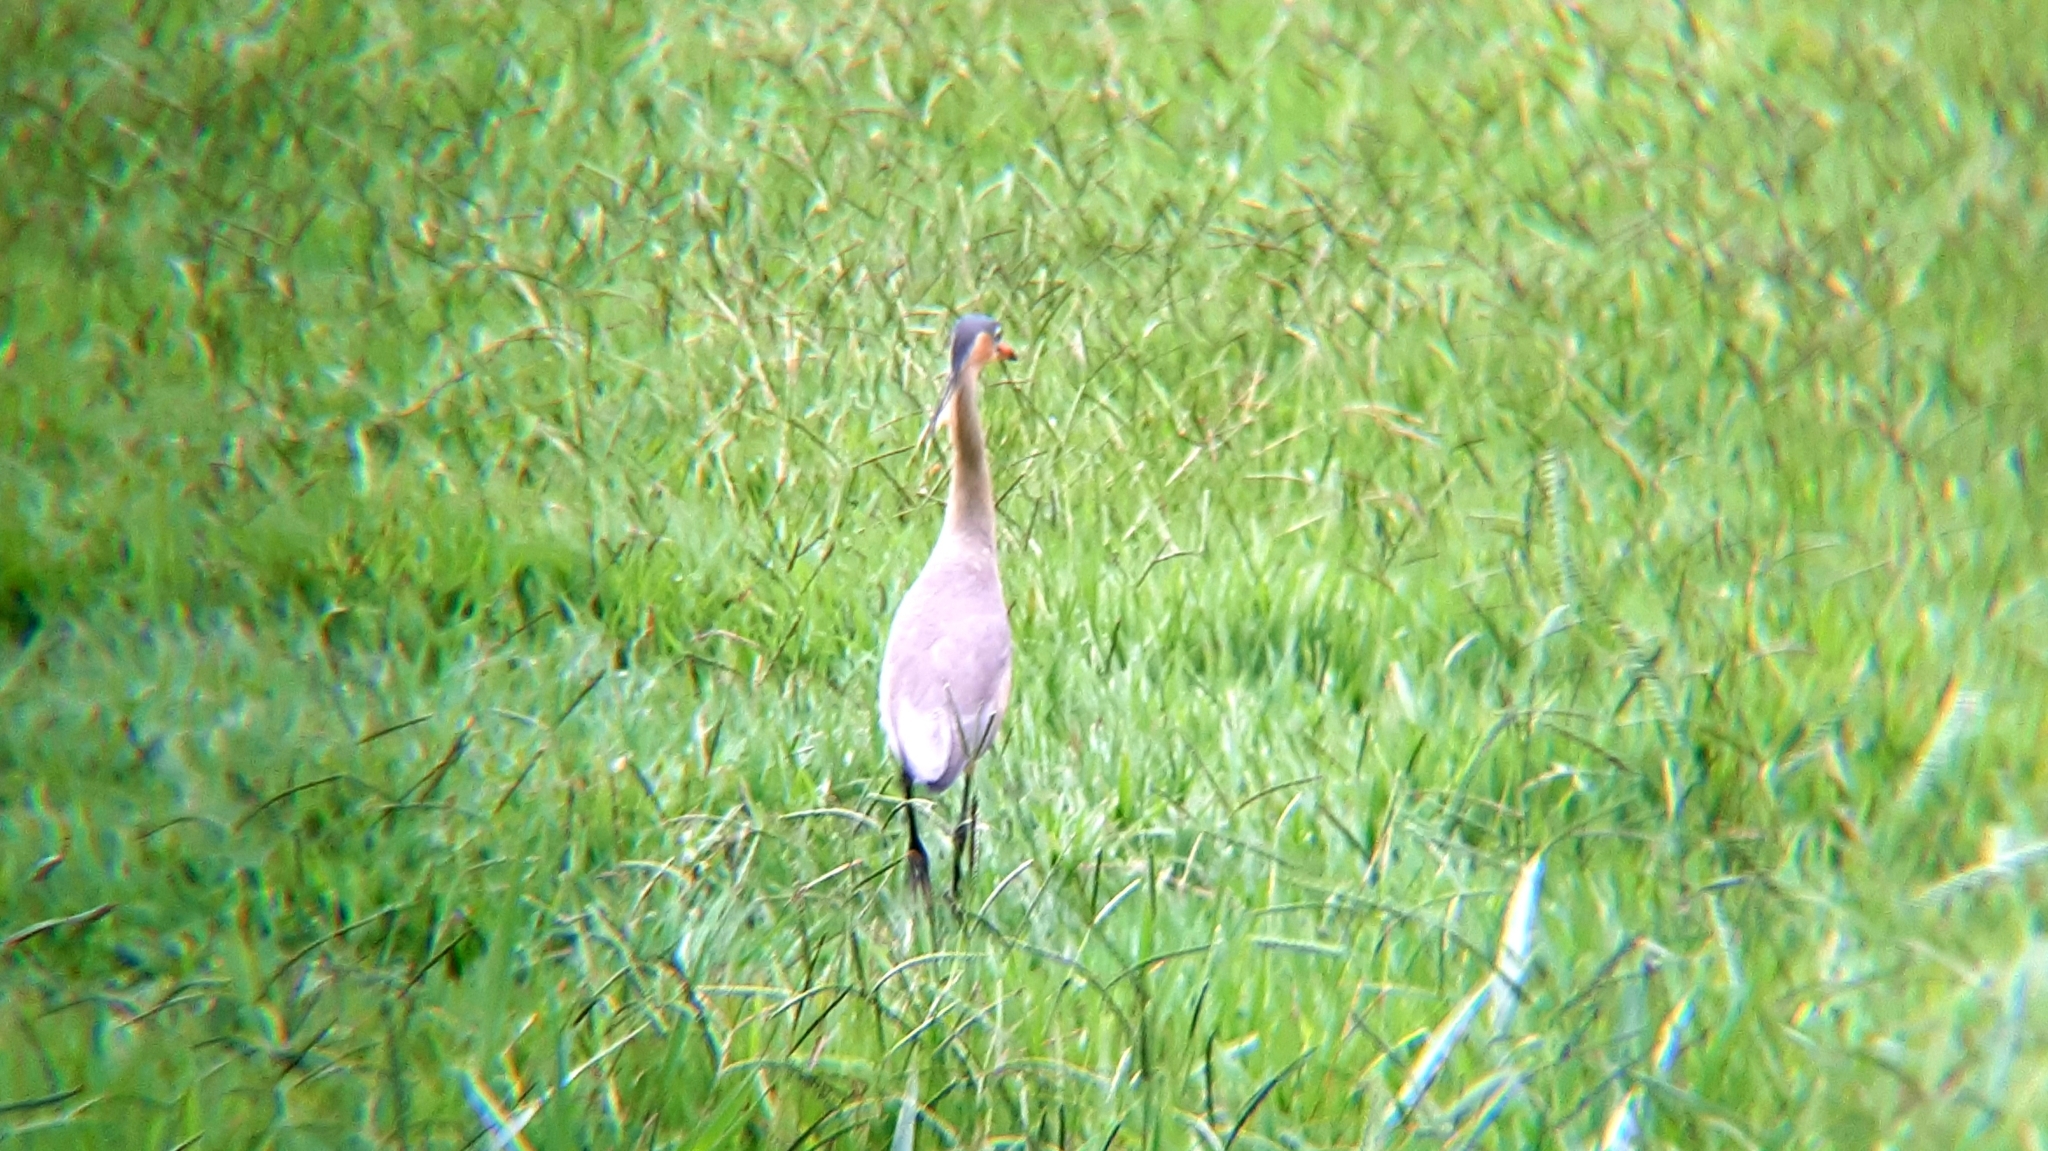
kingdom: Animalia
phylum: Chordata
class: Aves
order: Pelecaniformes
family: Ardeidae
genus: Syrigma
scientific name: Syrigma sibilatrix
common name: Whistling heron
